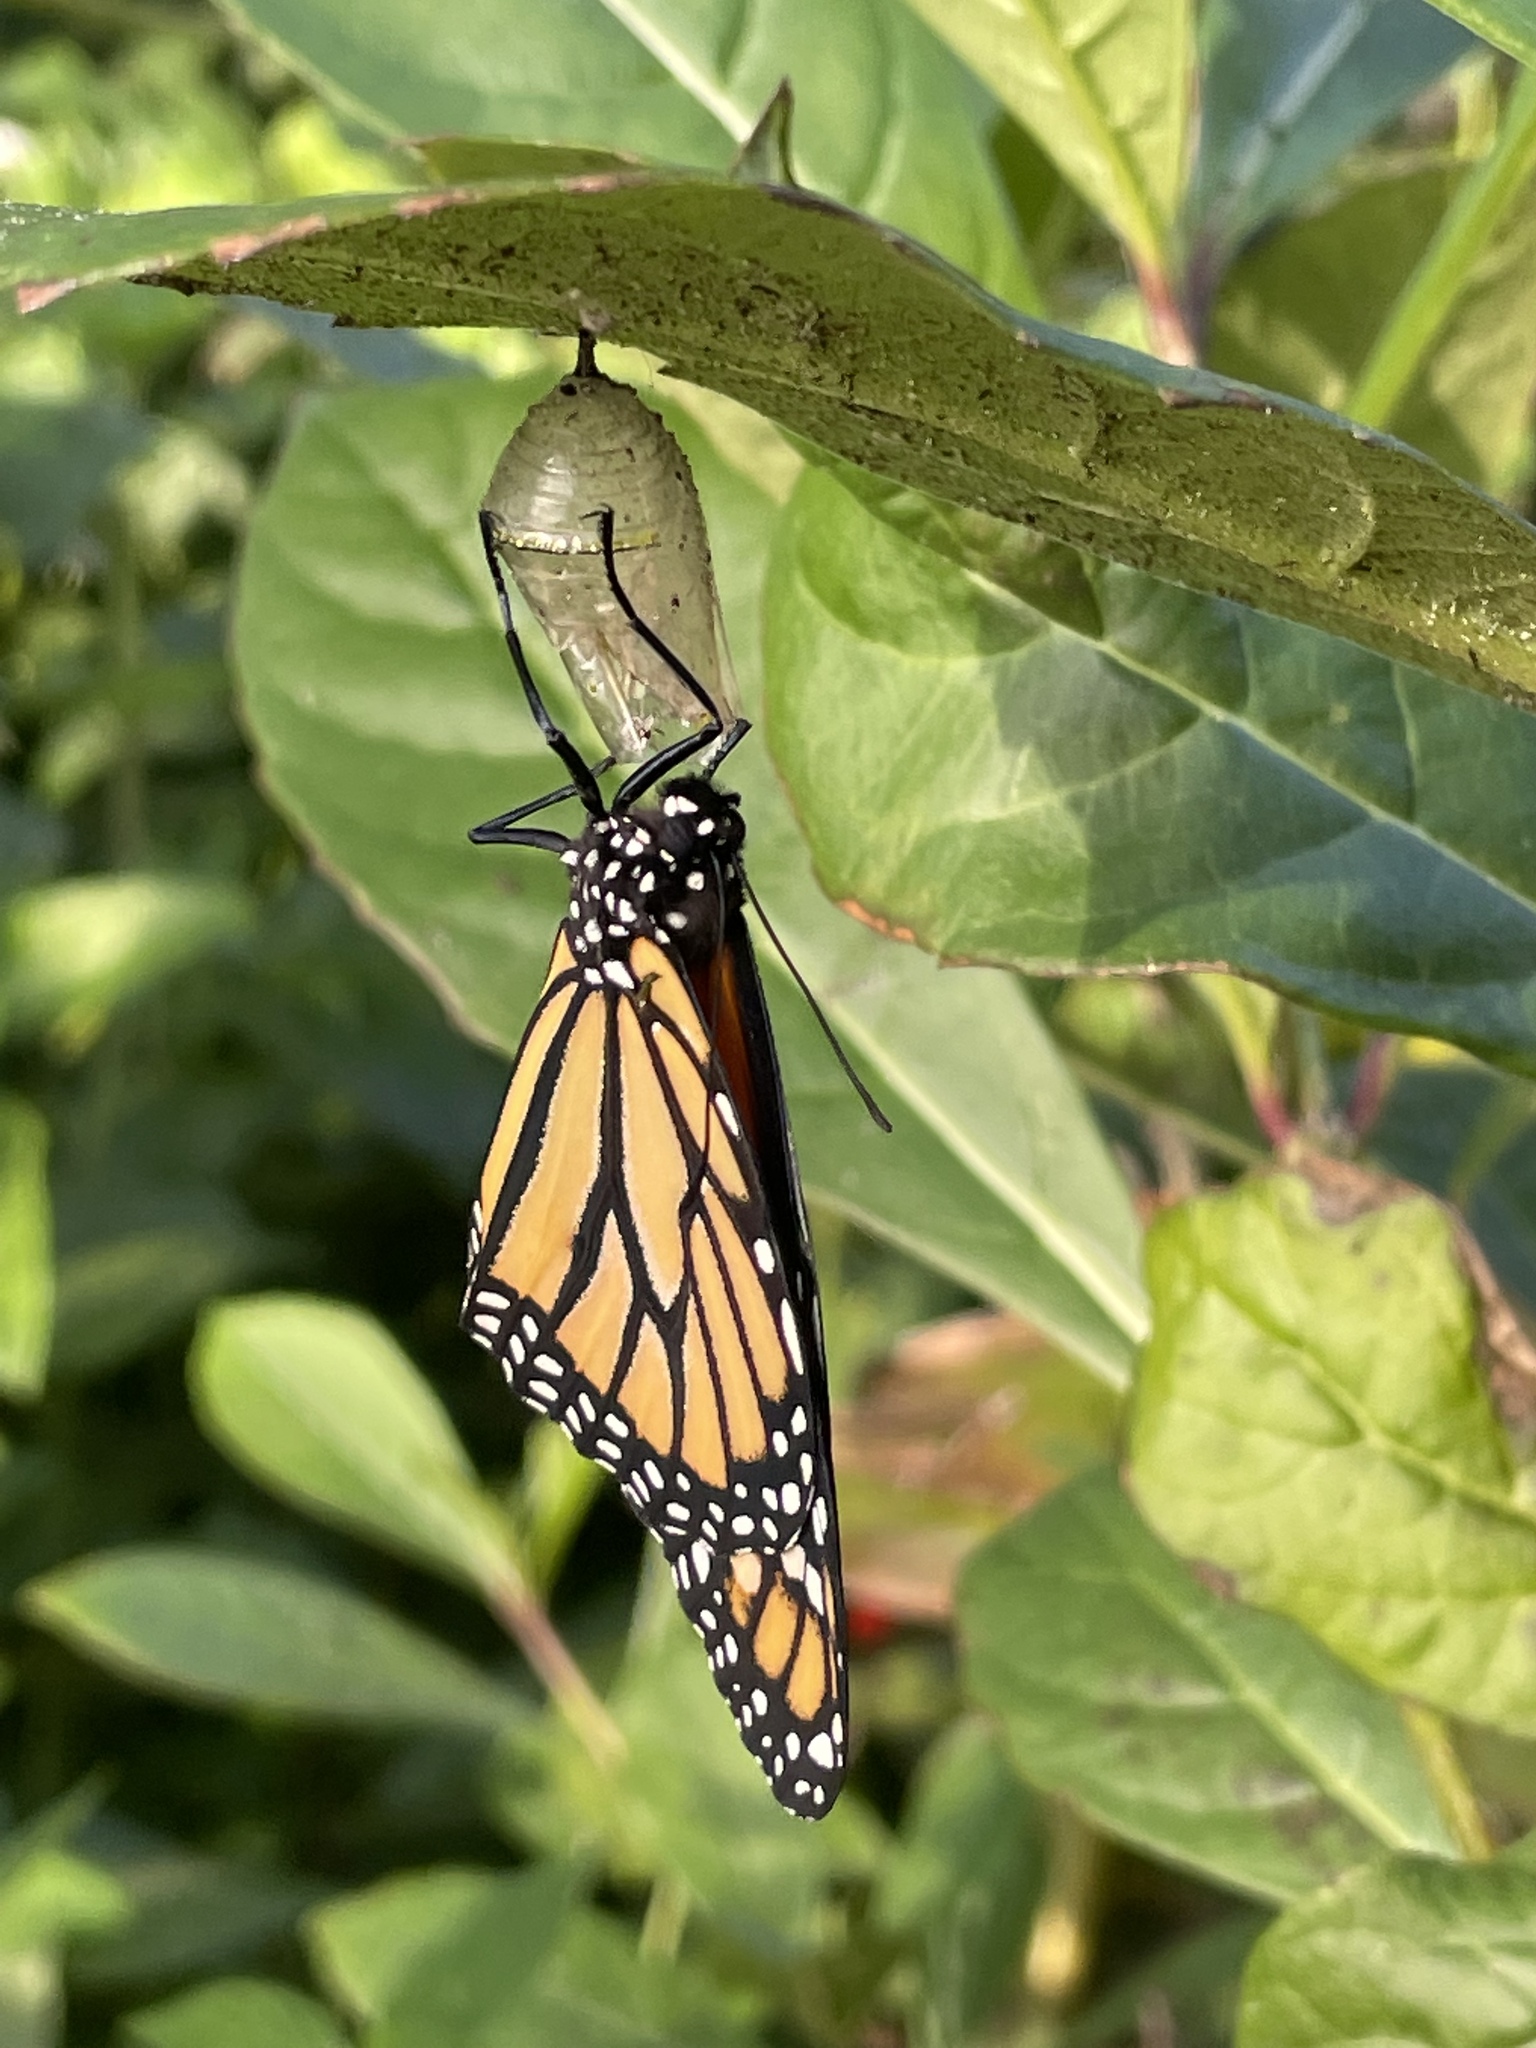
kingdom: Animalia
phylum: Arthropoda
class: Insecta
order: Lepidoptera
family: Nymphalidae
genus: Danaus
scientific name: Danaus plexippus
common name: Monarch
